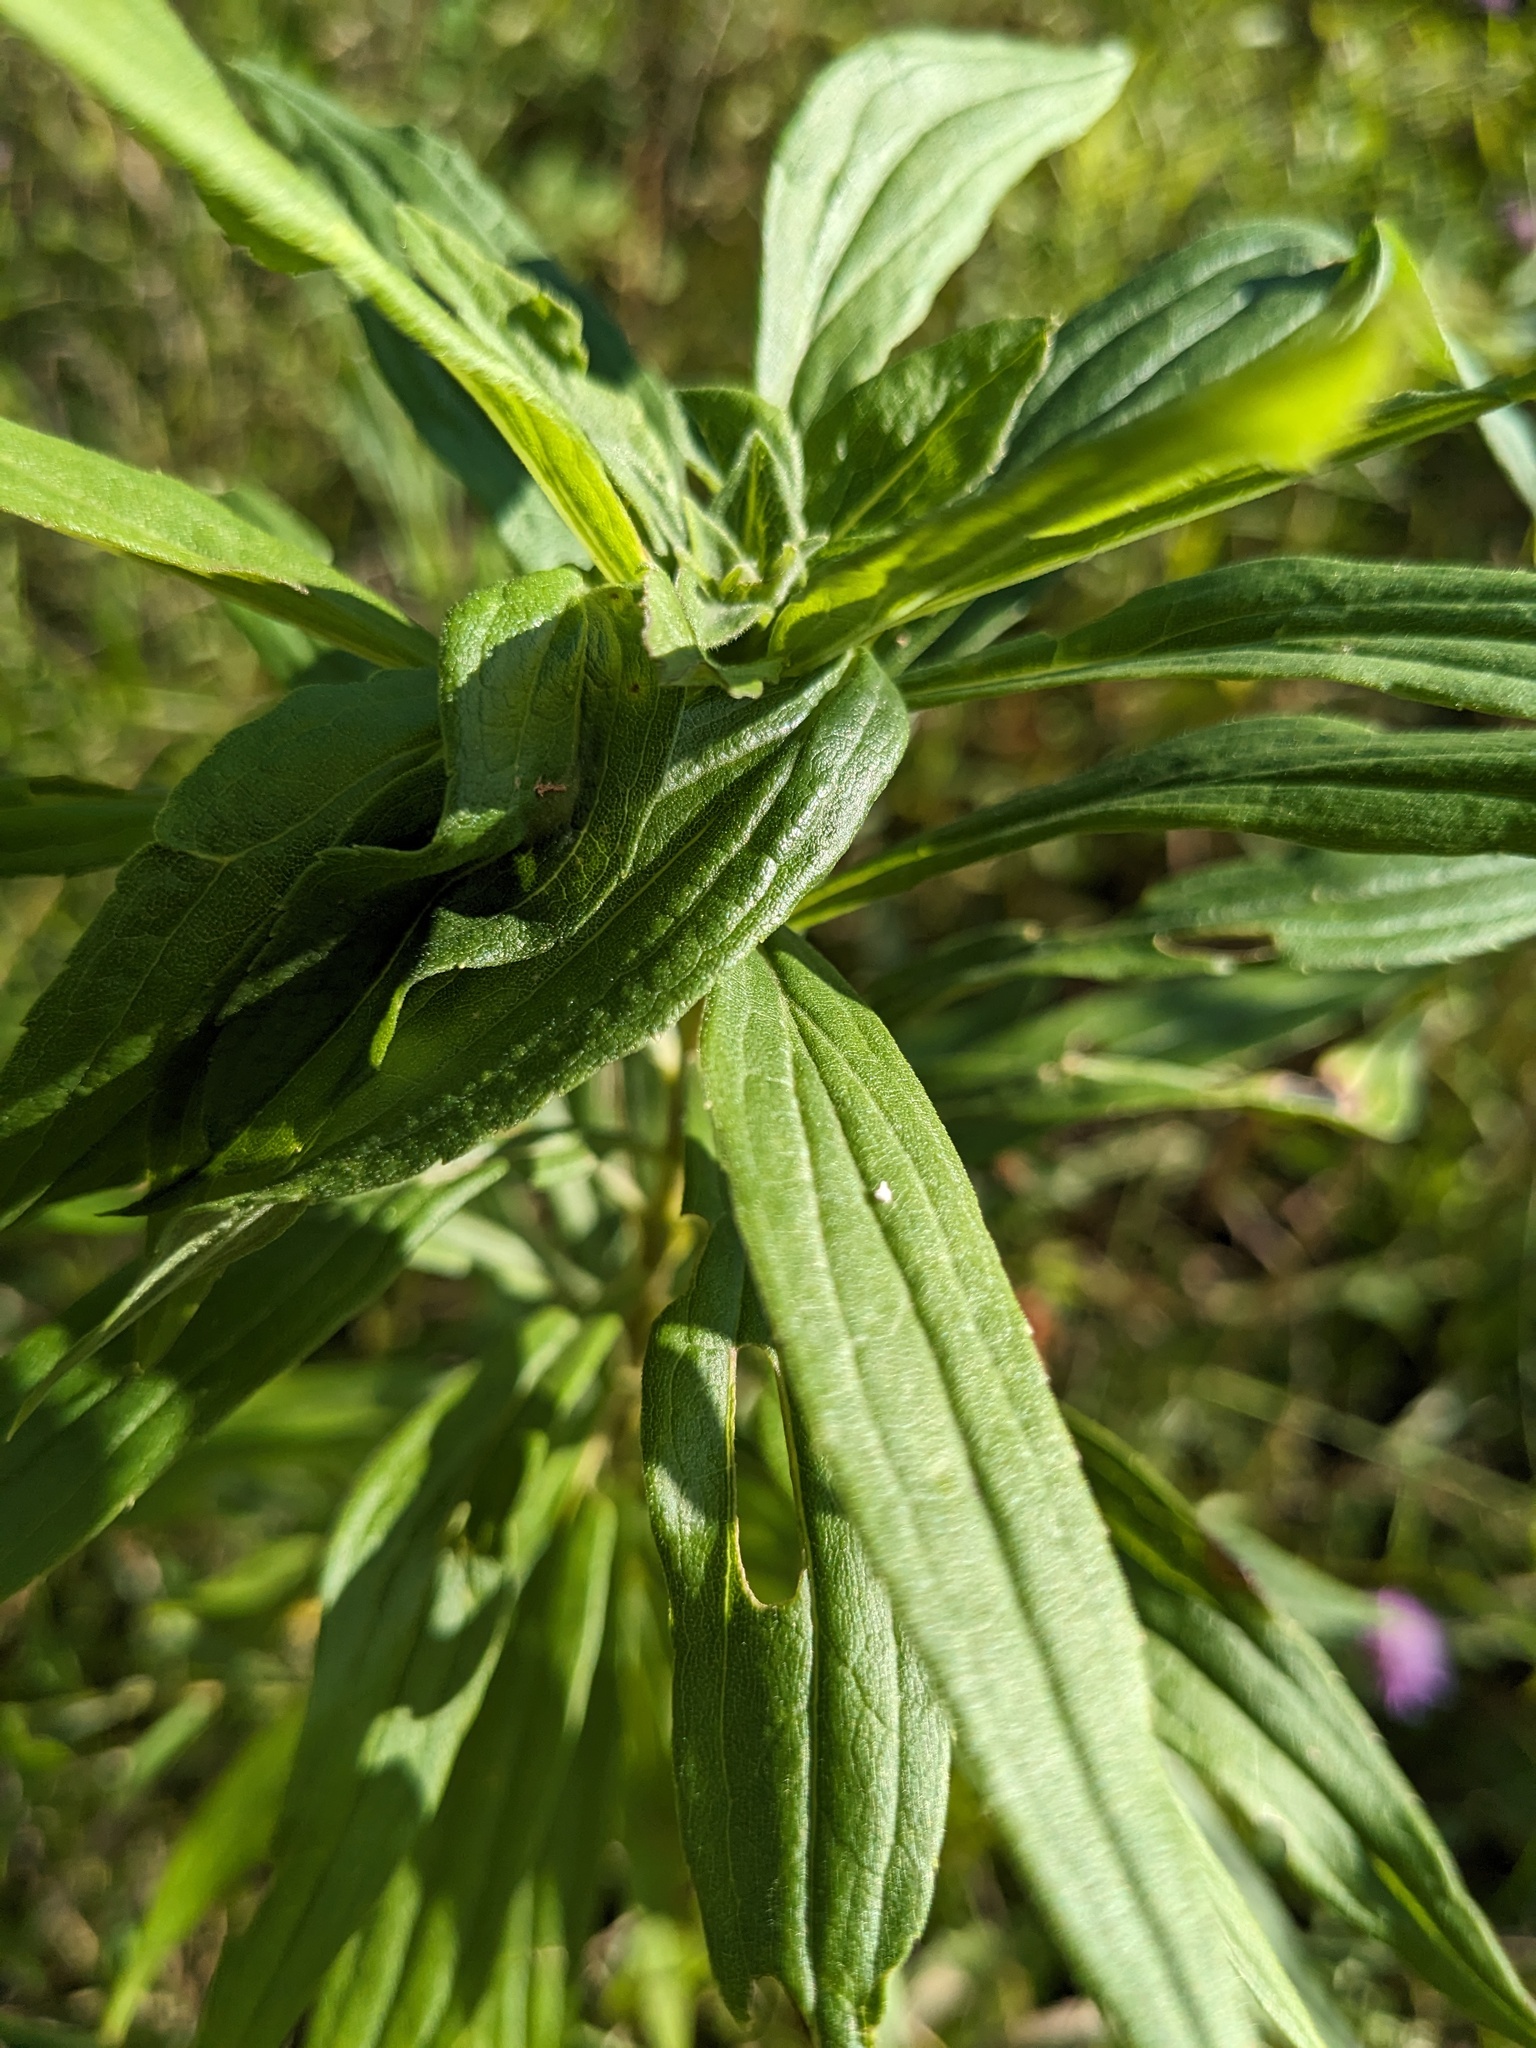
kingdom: Animalia
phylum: Arthropoda
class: Insecta
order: Diptera
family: Cecidomyiidae
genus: Asphondylia
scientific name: Asphondylia solidaginis
